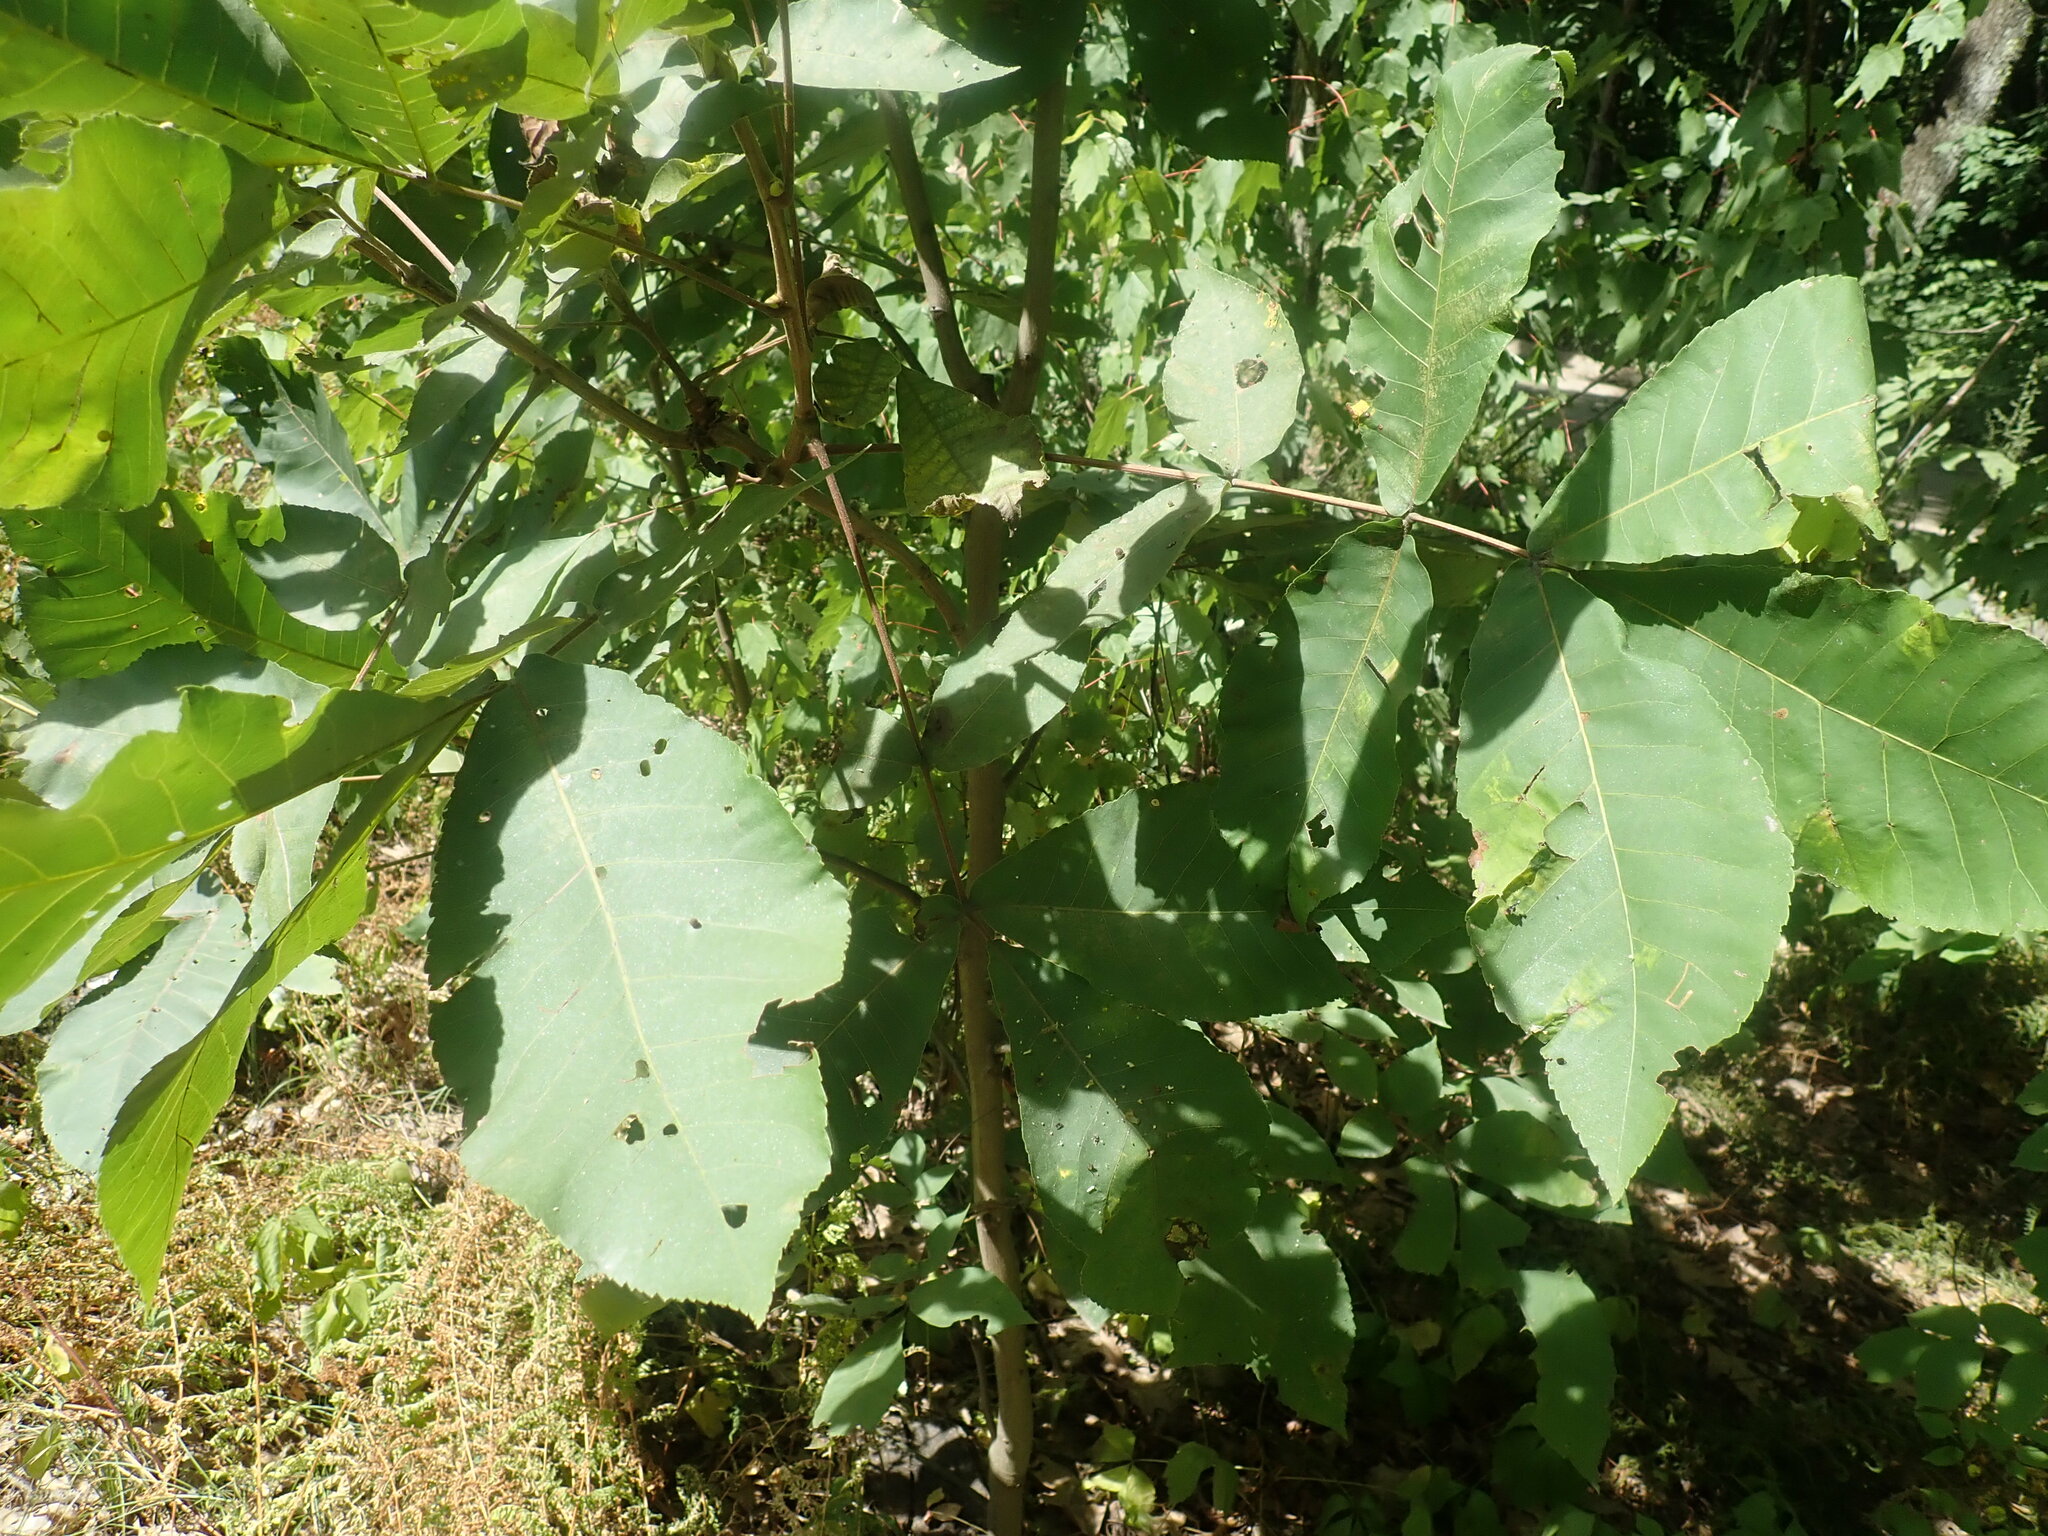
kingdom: Plantae
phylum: Tracheophyta
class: Magnoliopsida
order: Fagales
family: Juglandaceae
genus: Carya
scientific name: Carya
